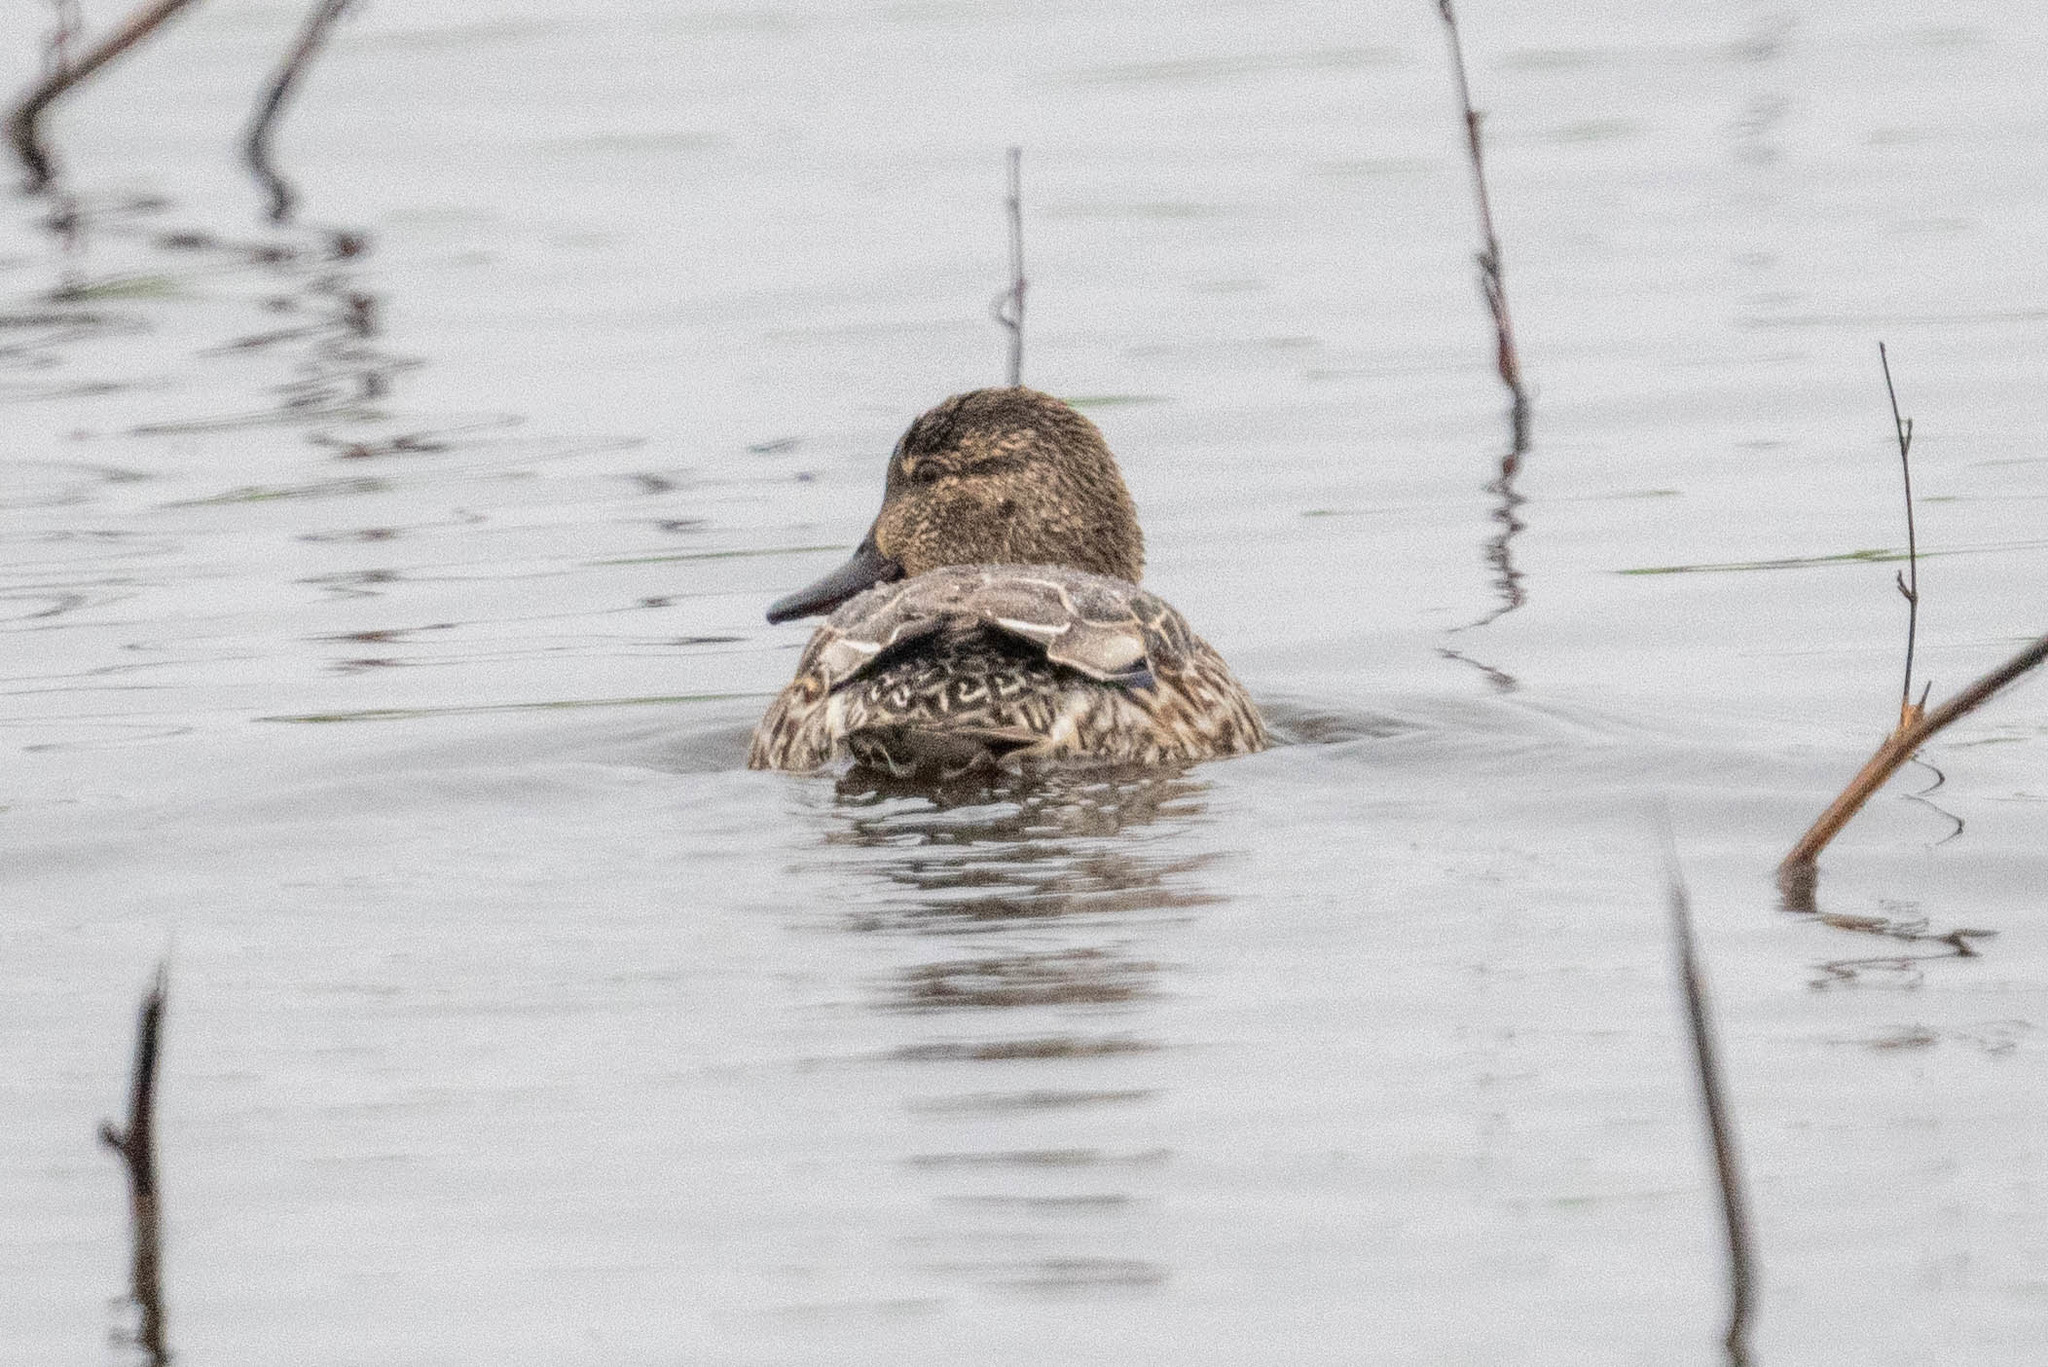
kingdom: Animalia
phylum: Chordata
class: Aves
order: Anseriformes
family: Anatidae
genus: Anas
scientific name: Anas crecca
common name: Eurasian teal
